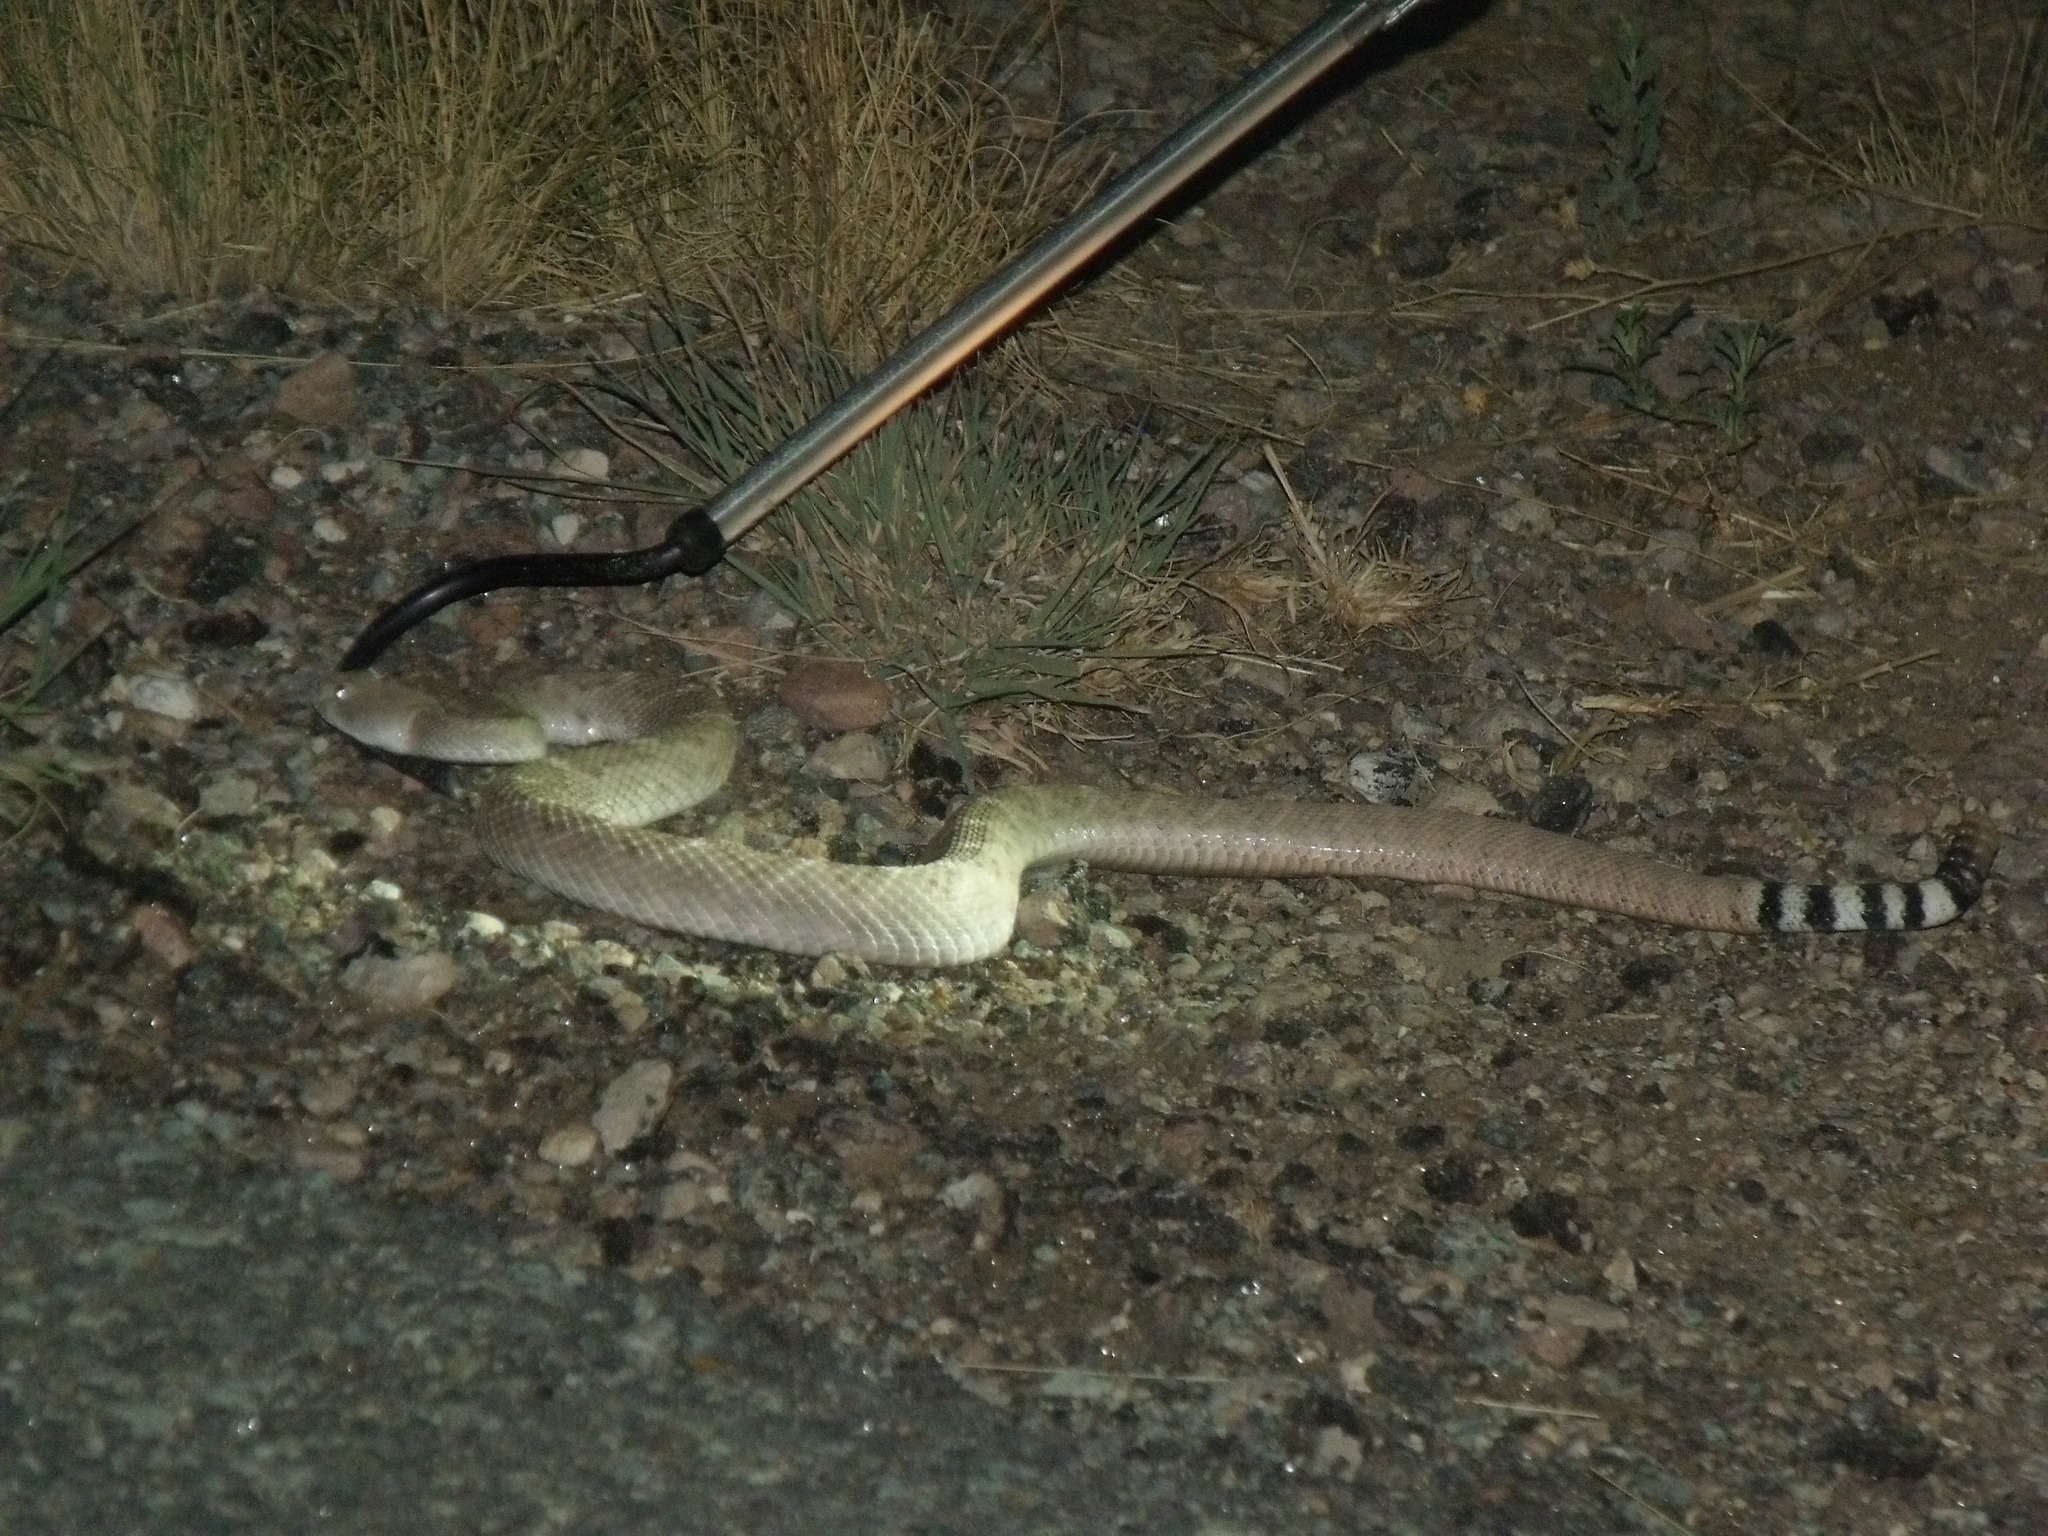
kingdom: Animalia
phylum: Chordata
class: Squamata
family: Viperidae
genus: Crotalus
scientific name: Crotalus atrox
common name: Western diamond-backed rattlesnake
